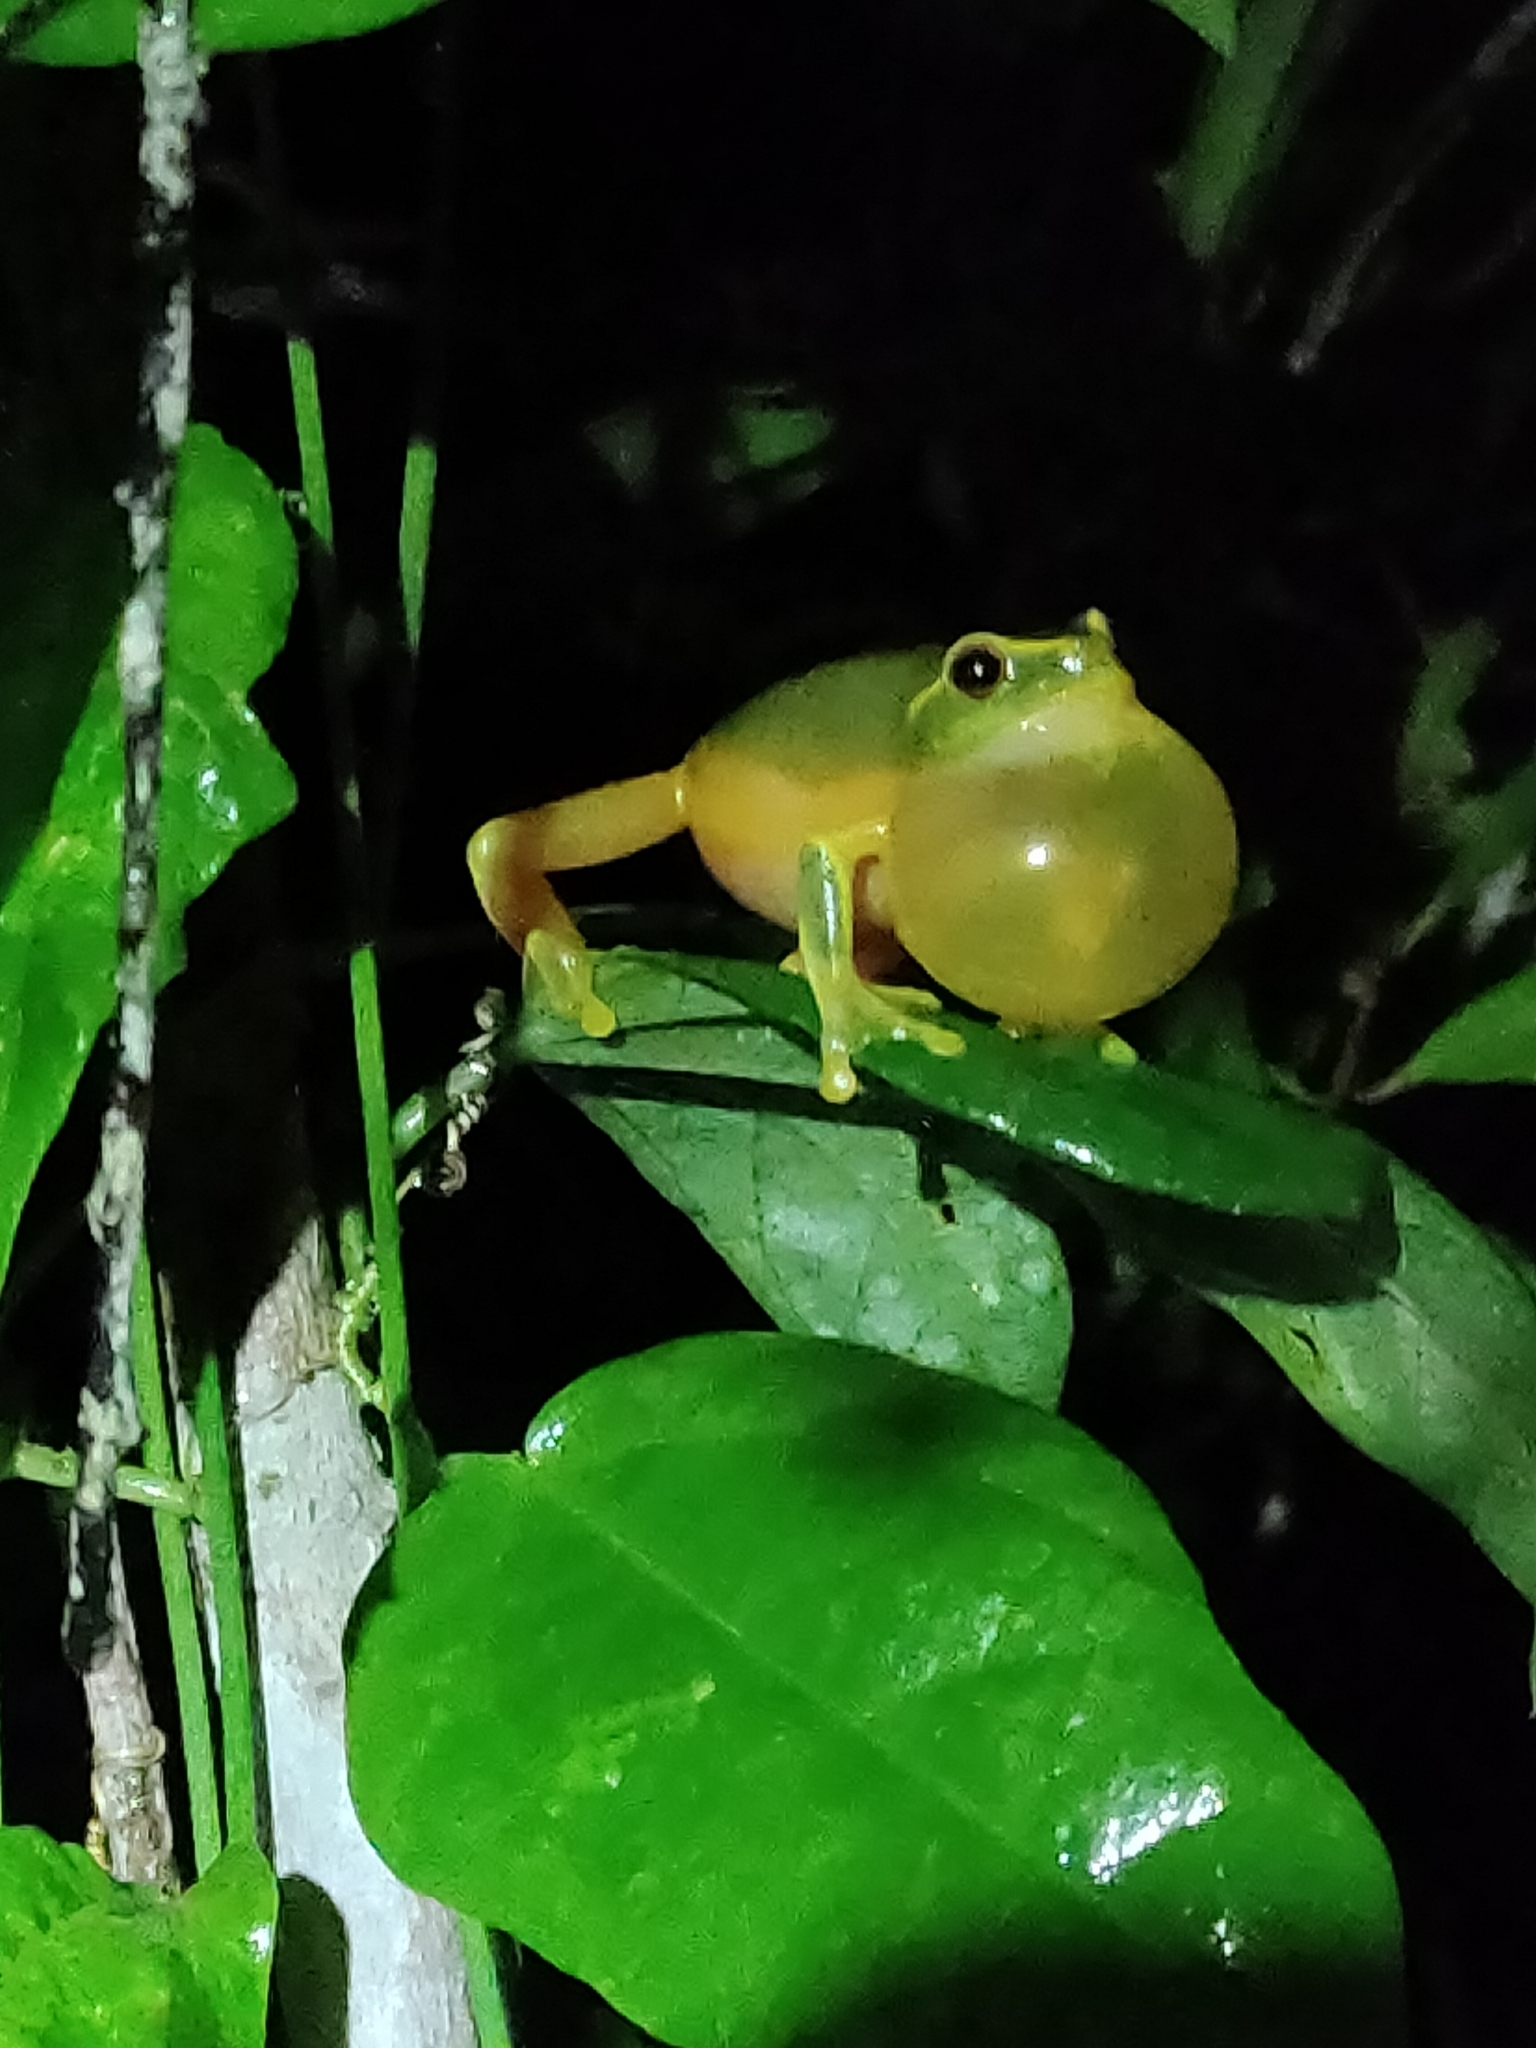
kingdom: Animalia
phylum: Chordata
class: Amphibia
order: Anura
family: Pelodryadidae
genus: Ranoidea
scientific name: Ranoidea gracilenta
